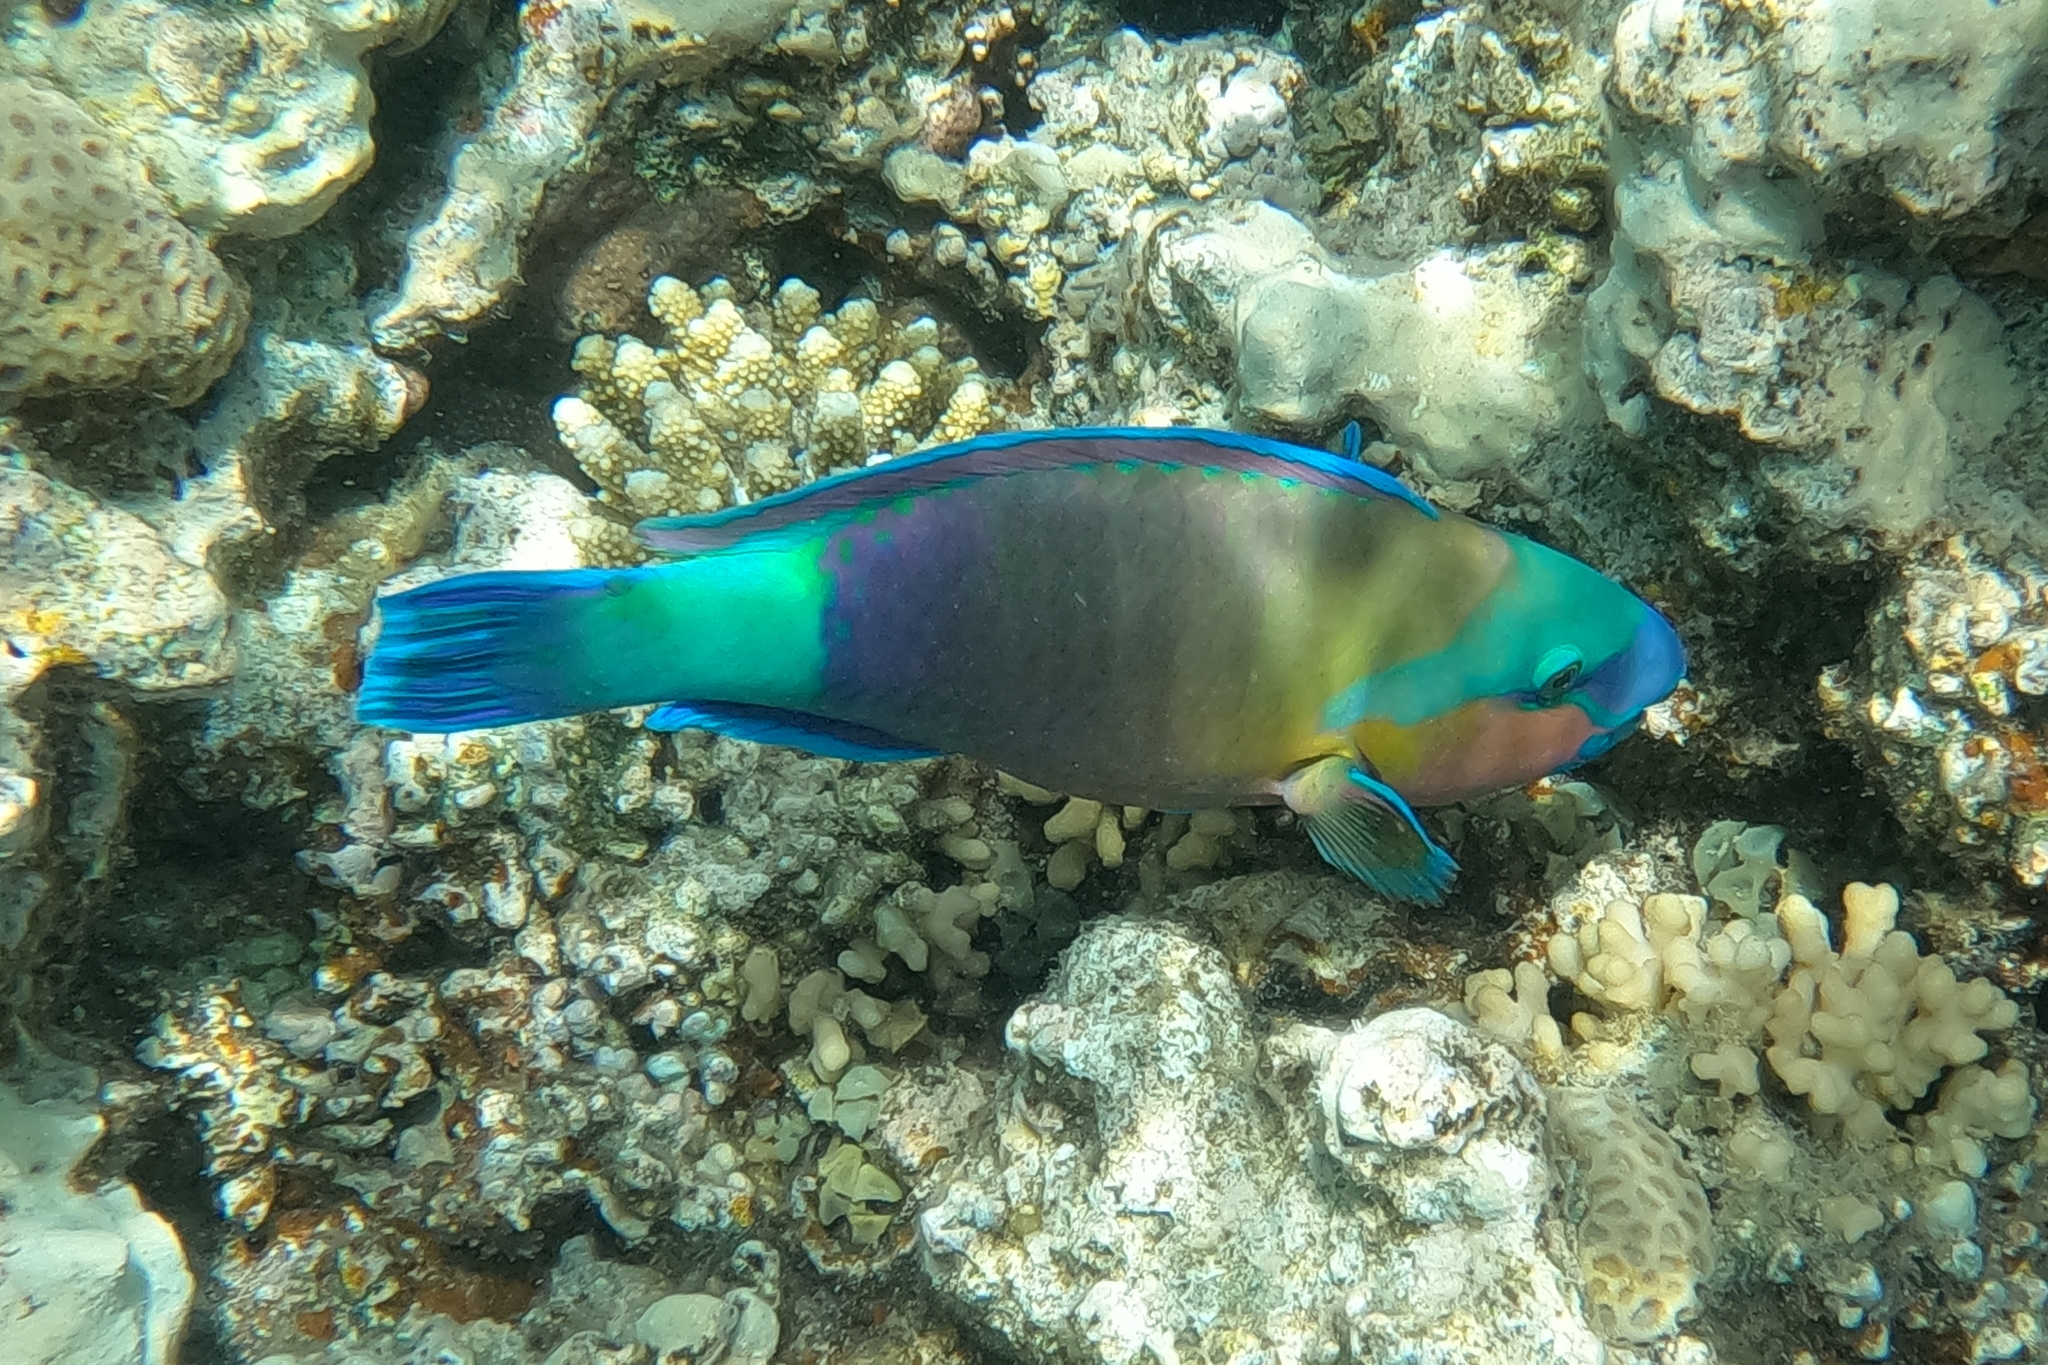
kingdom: Animalia
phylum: Chordata
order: Perciformes
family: Scaridae
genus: Chlorurus
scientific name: Chlorurus sordidus
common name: Bullethead parrotfish
